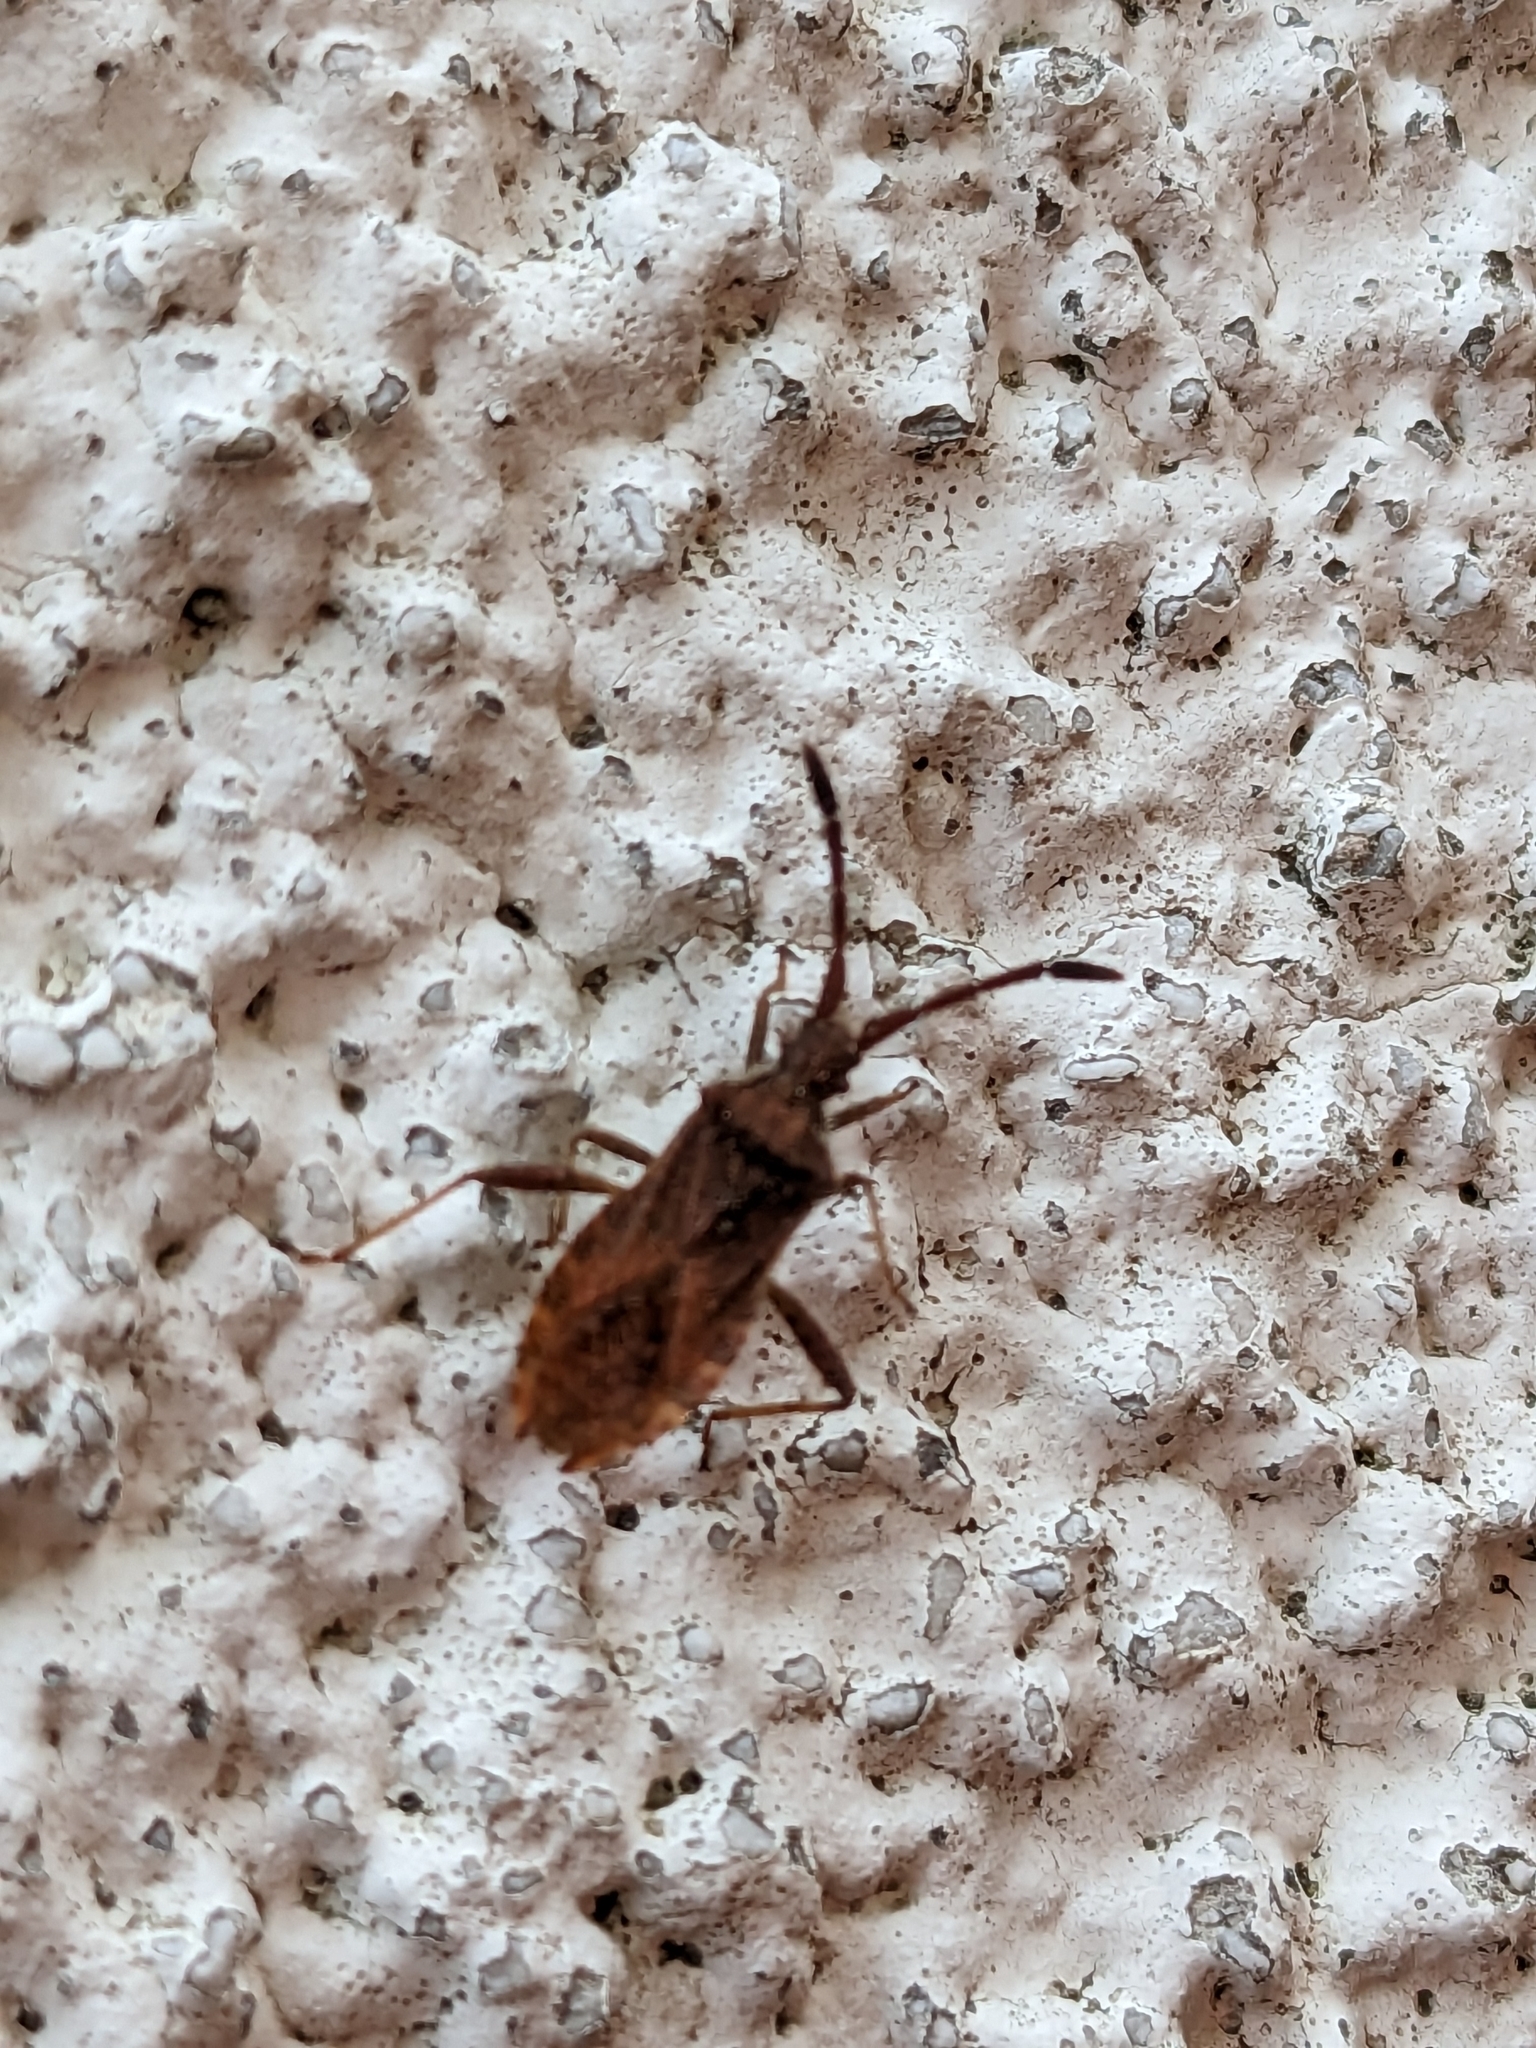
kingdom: Animalia
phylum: Arthropoda
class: Insecta
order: Hemiptera
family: Coreidae
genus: Coriomeris
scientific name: Coriomeris denticulatus
